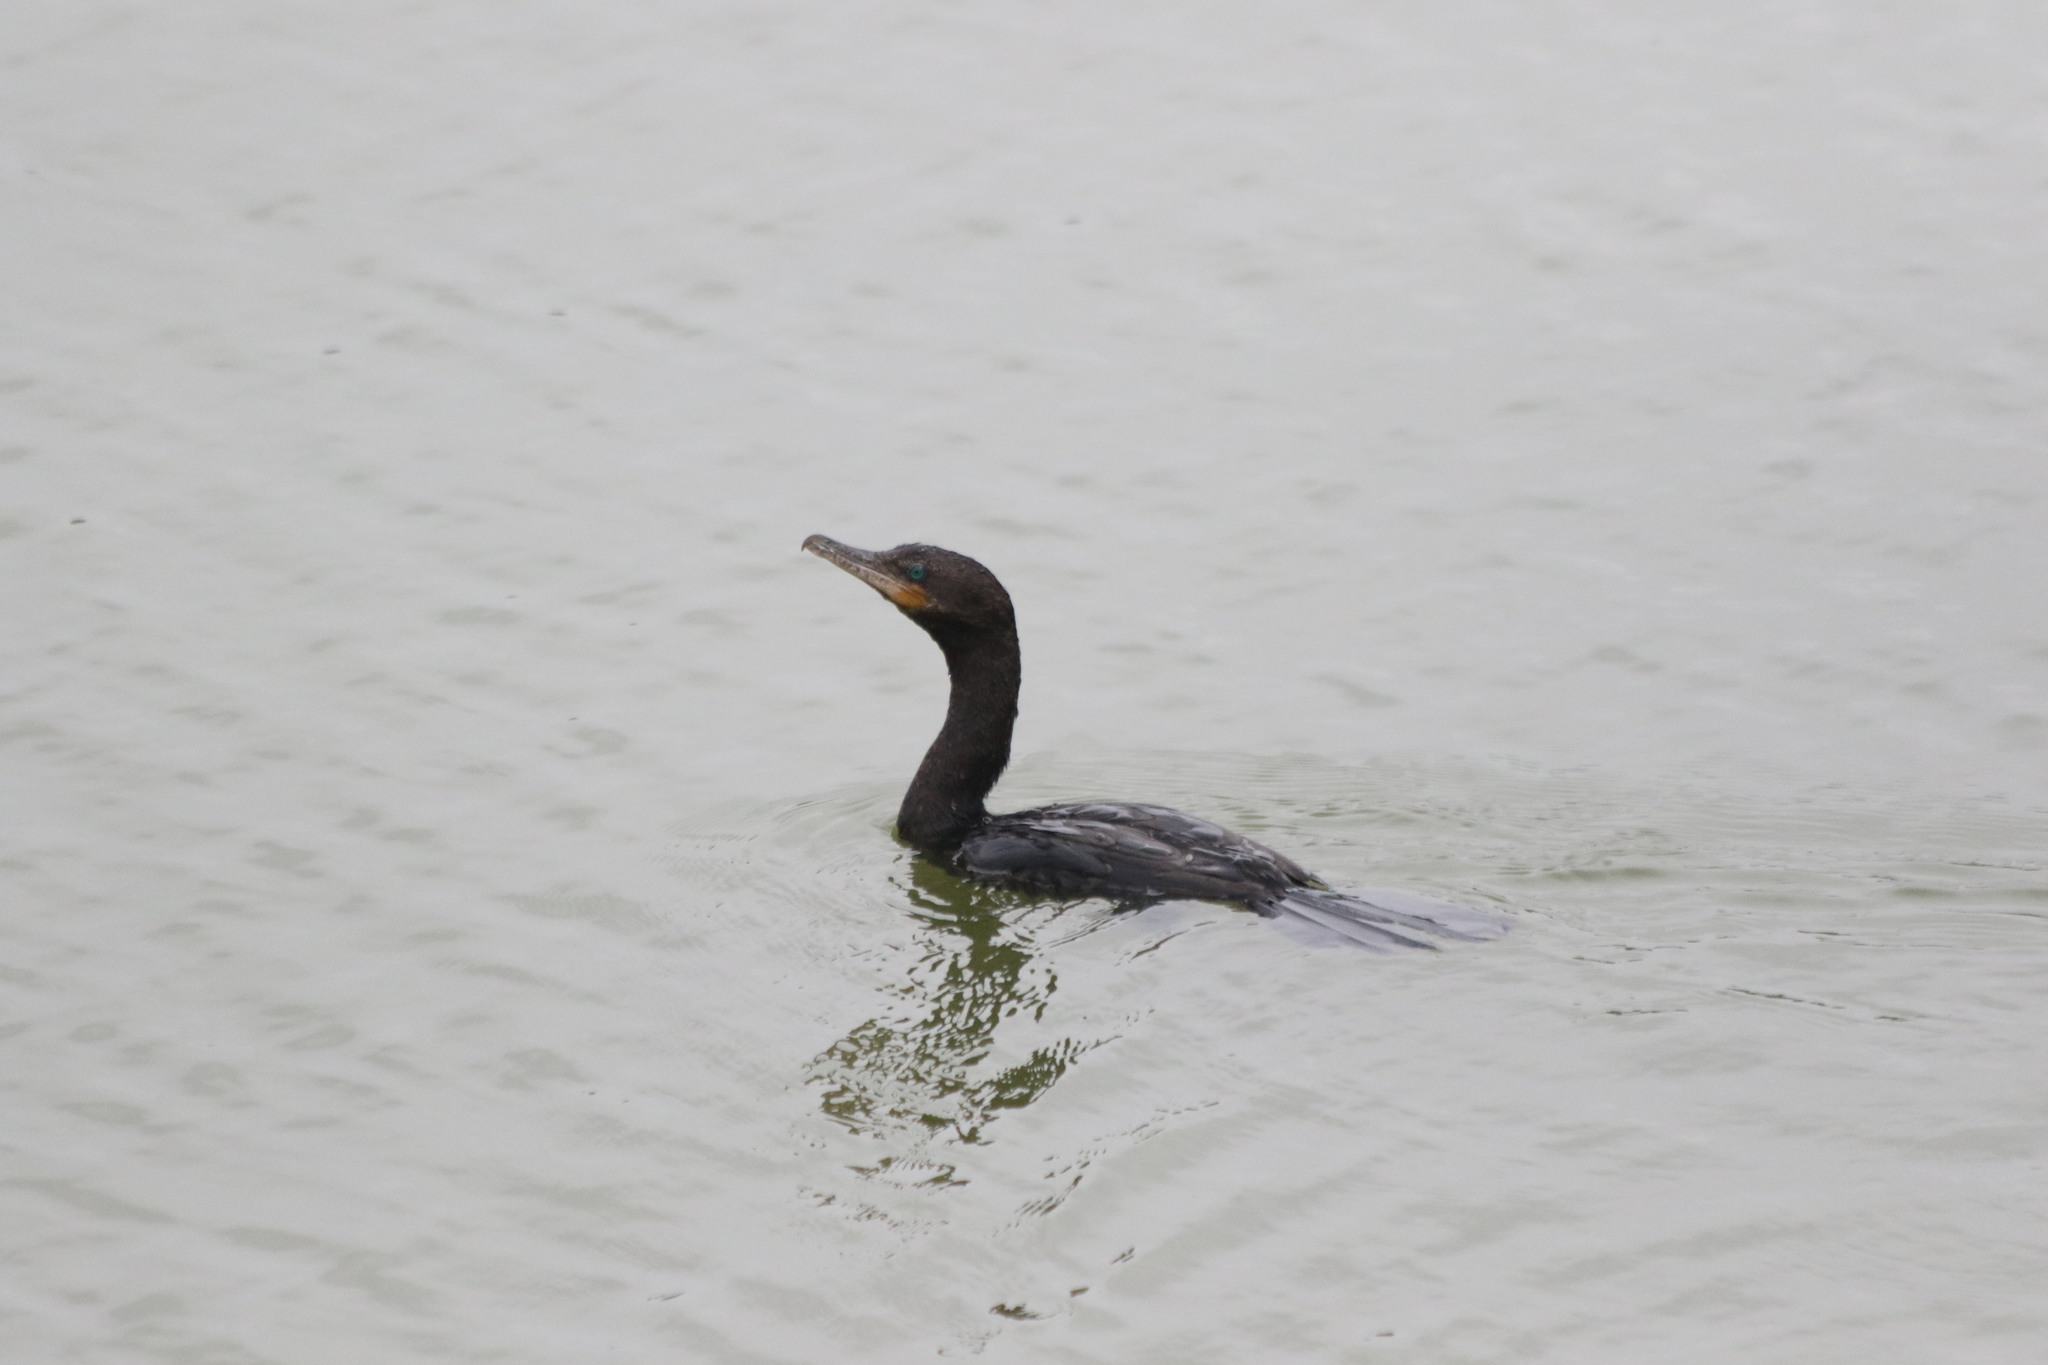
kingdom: Animalia
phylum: Chordata
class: Aves
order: Suliformes
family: Phalacrocoracidae
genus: Phalacrocorax
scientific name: Phalacrocorax brasilianus
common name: Neotropic cormorant
